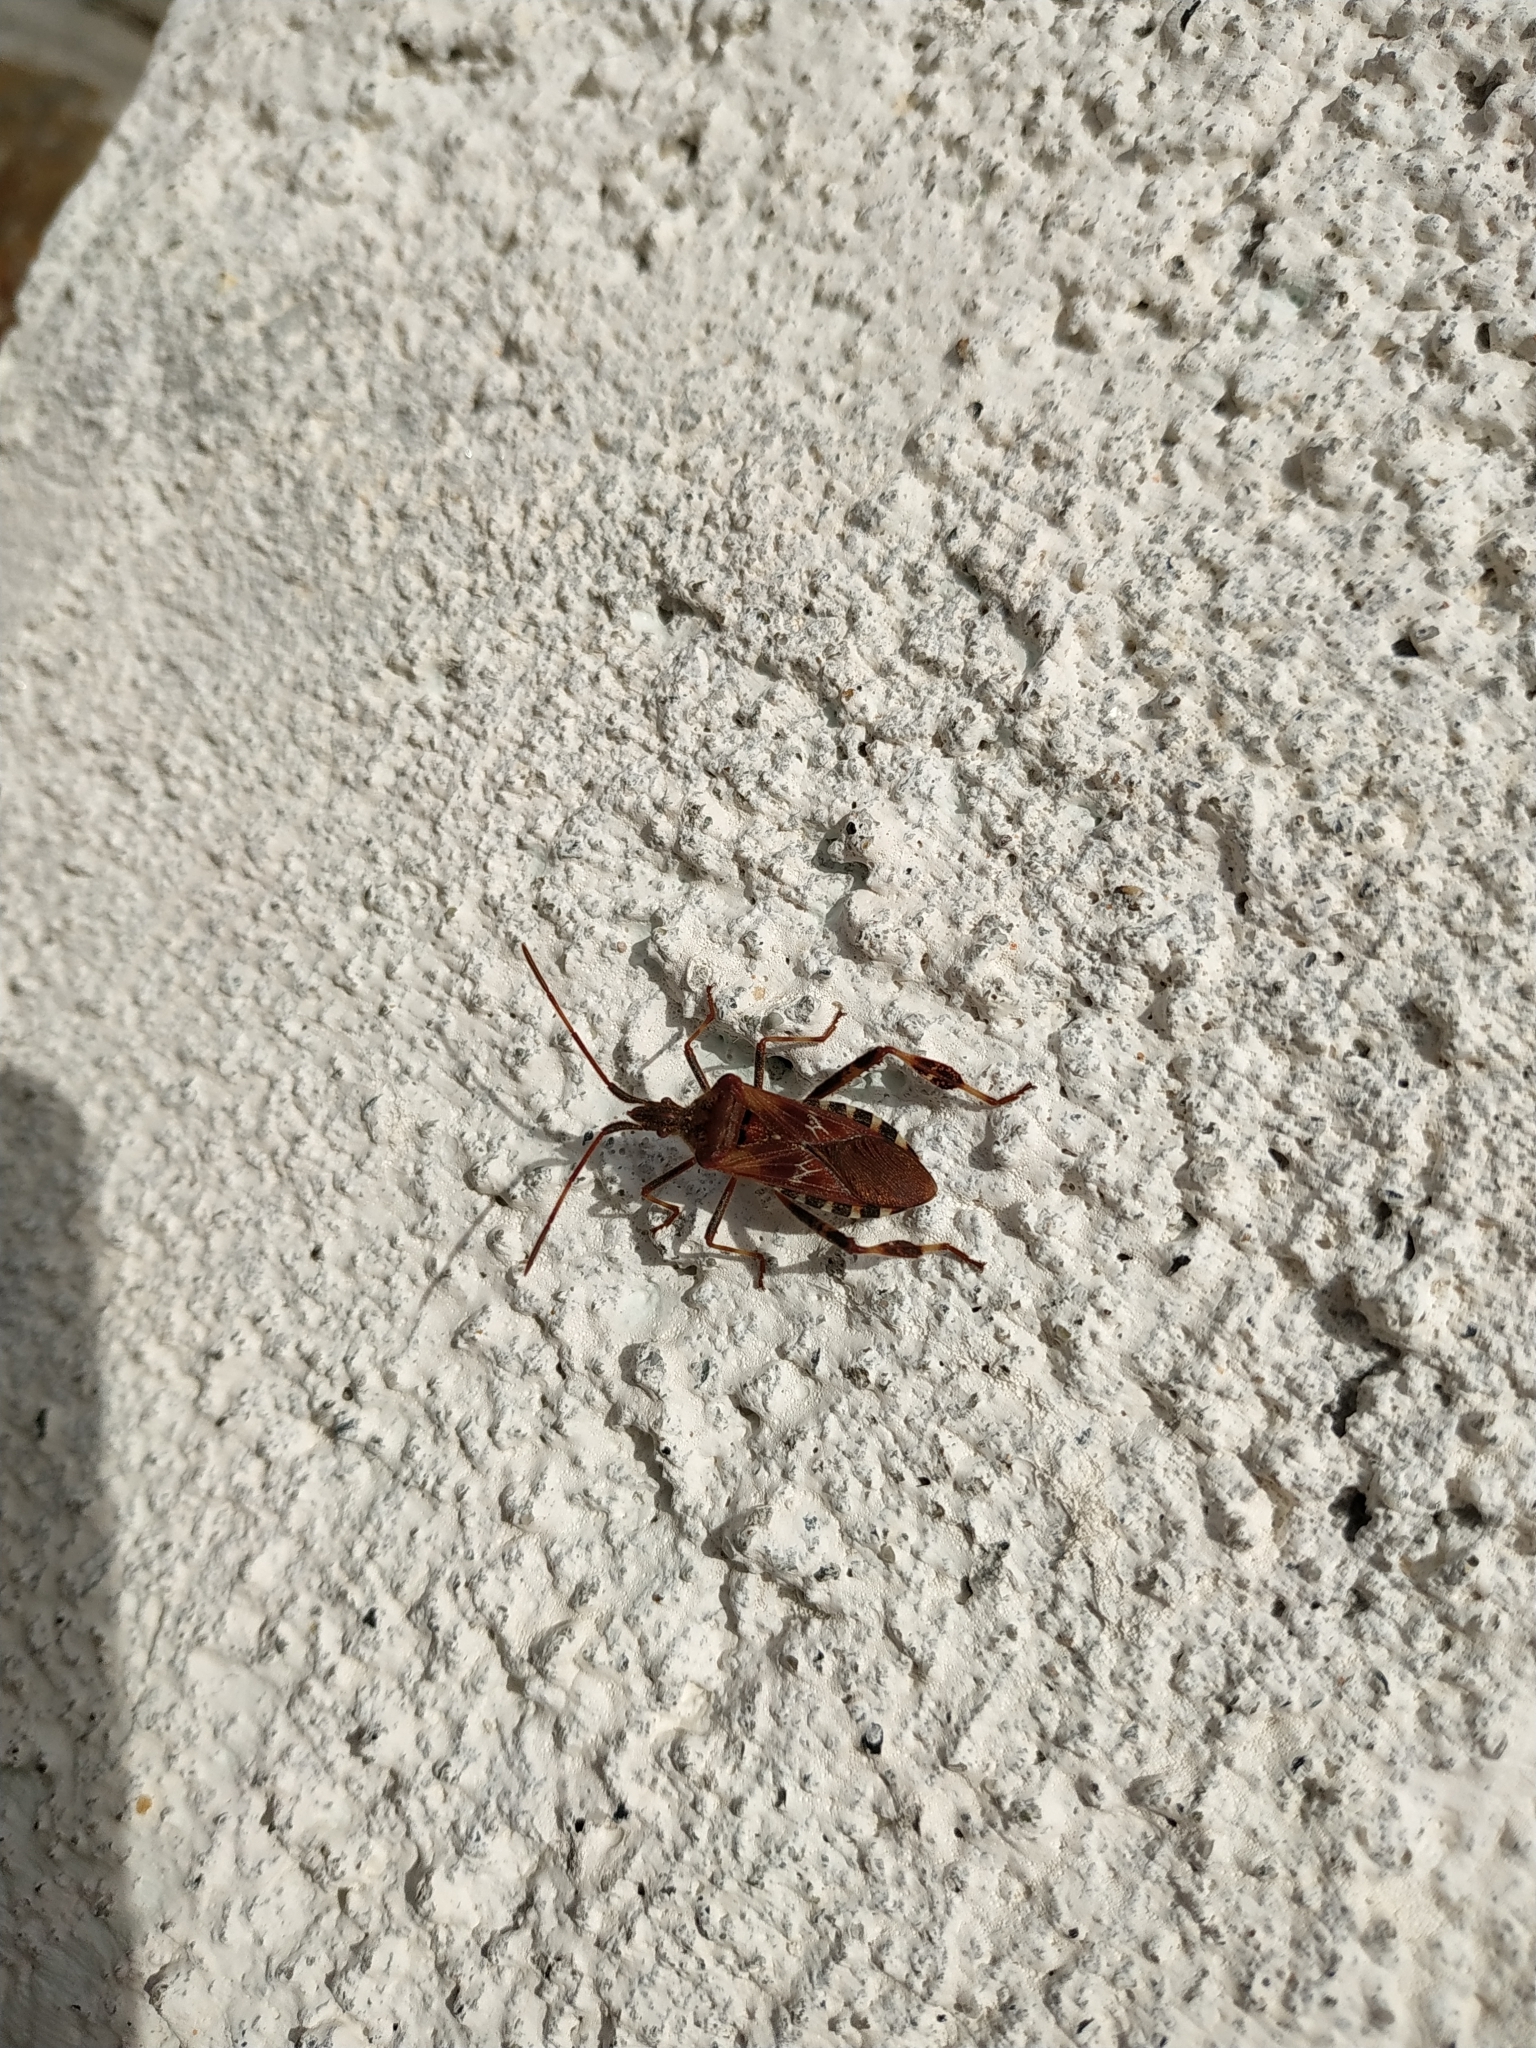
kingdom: Animalia
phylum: Arthropoda
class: Insecta
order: Hemiptera
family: Coreidae
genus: Leptoglossus
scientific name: Leptoglossus occidentalis
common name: Western conifer-seed bug
